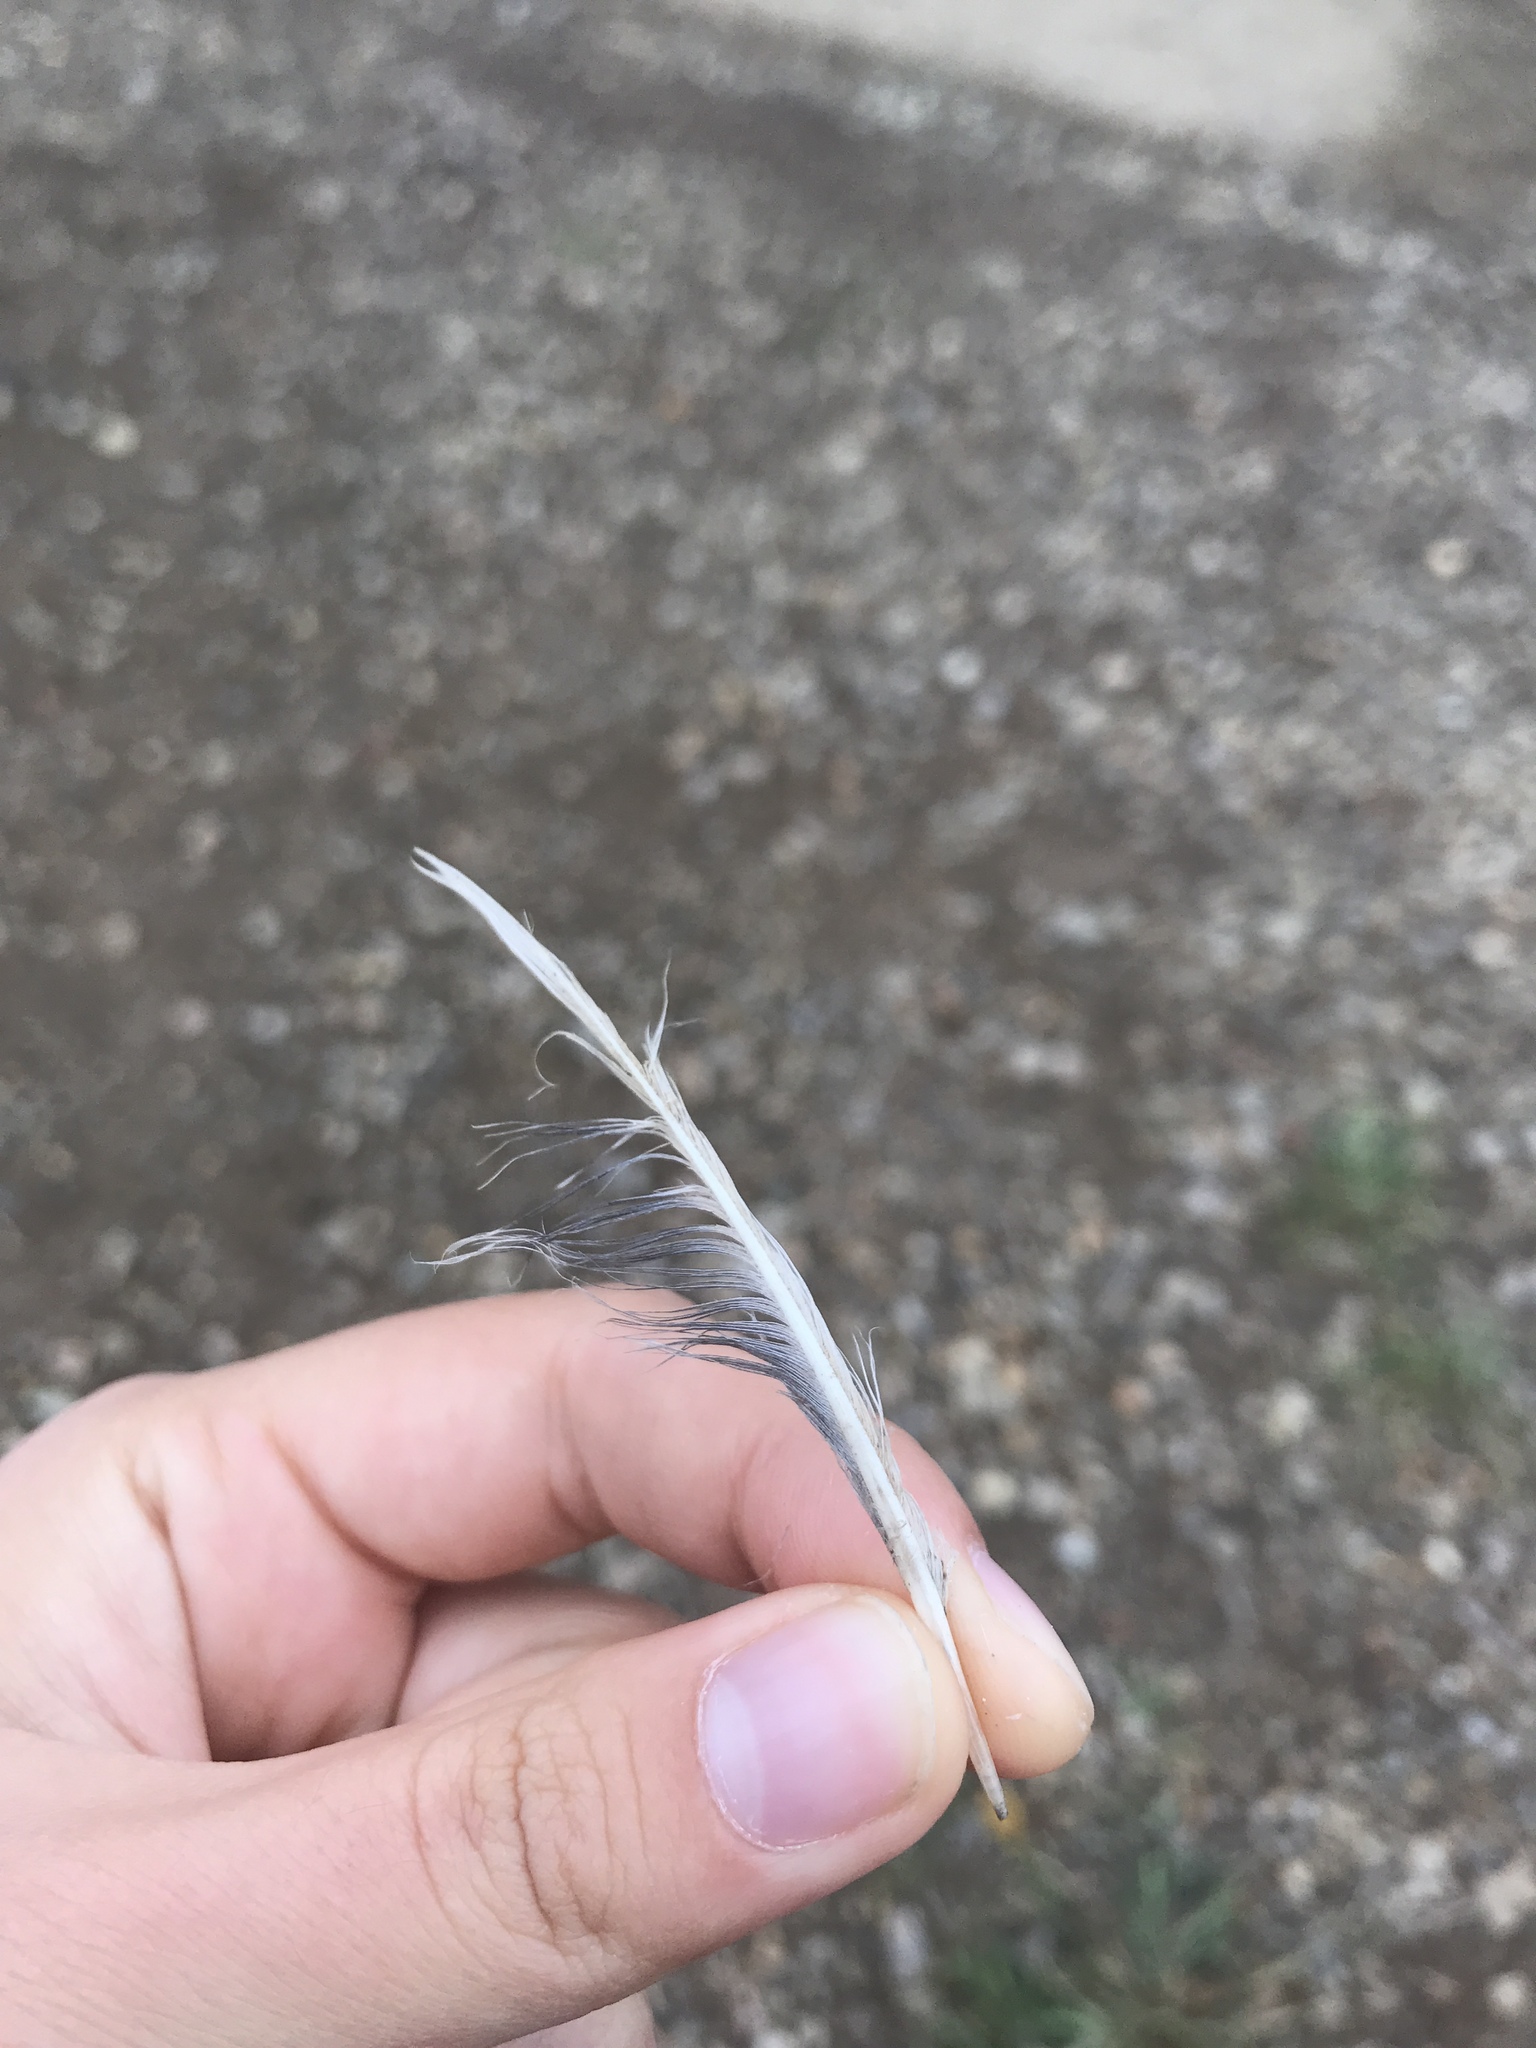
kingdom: Animalia
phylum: Chordata
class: Aves
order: Columbiformes
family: Columbidae
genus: Zenaida
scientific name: Zenaida macroura
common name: Mourning dove
